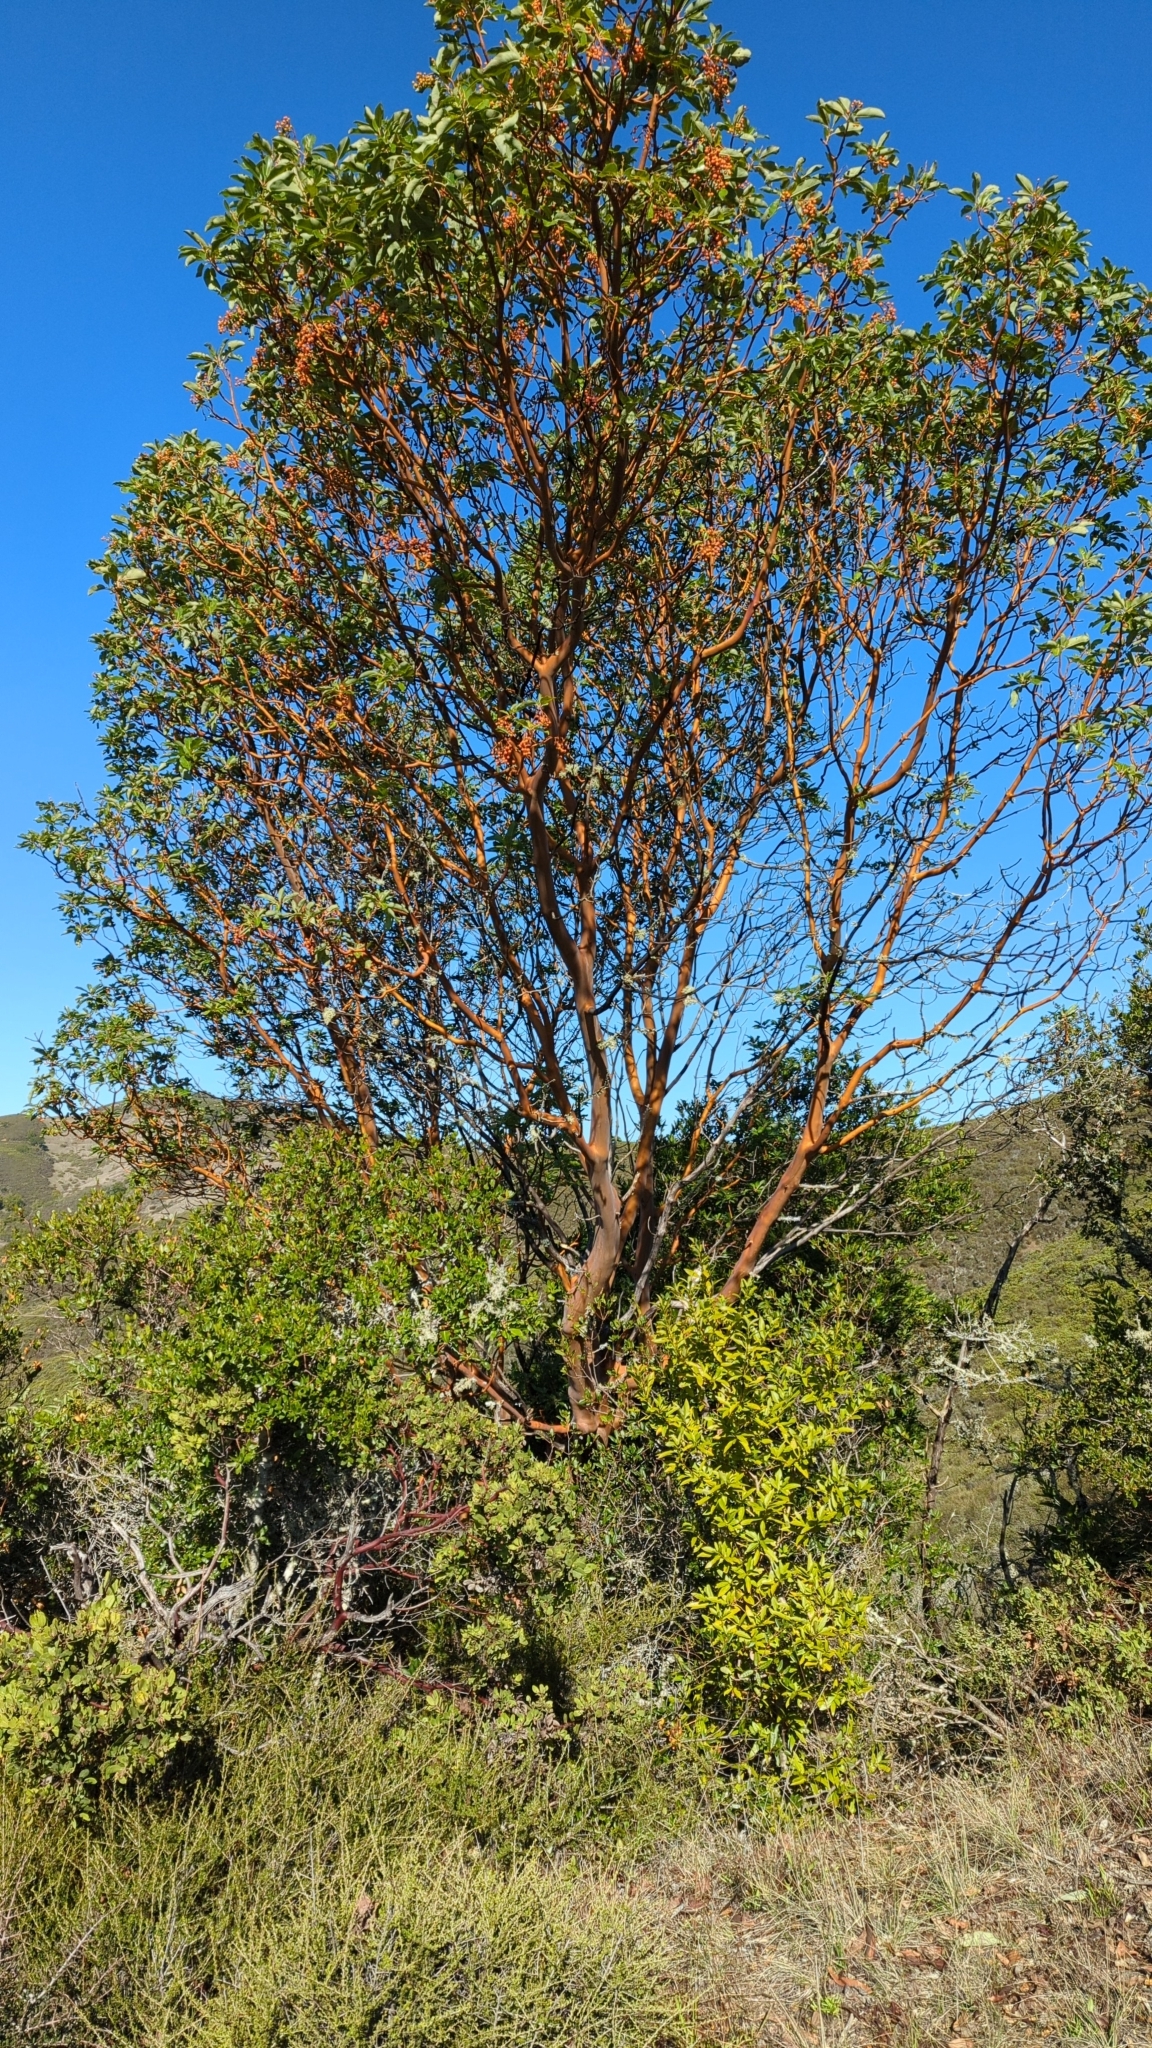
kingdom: Plantae
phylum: Tracheophyta
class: Magnoliopsida
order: Ericales
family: Ericaceae
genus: Arbutus
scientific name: Arbutus menziesii
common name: Pacific madrone
